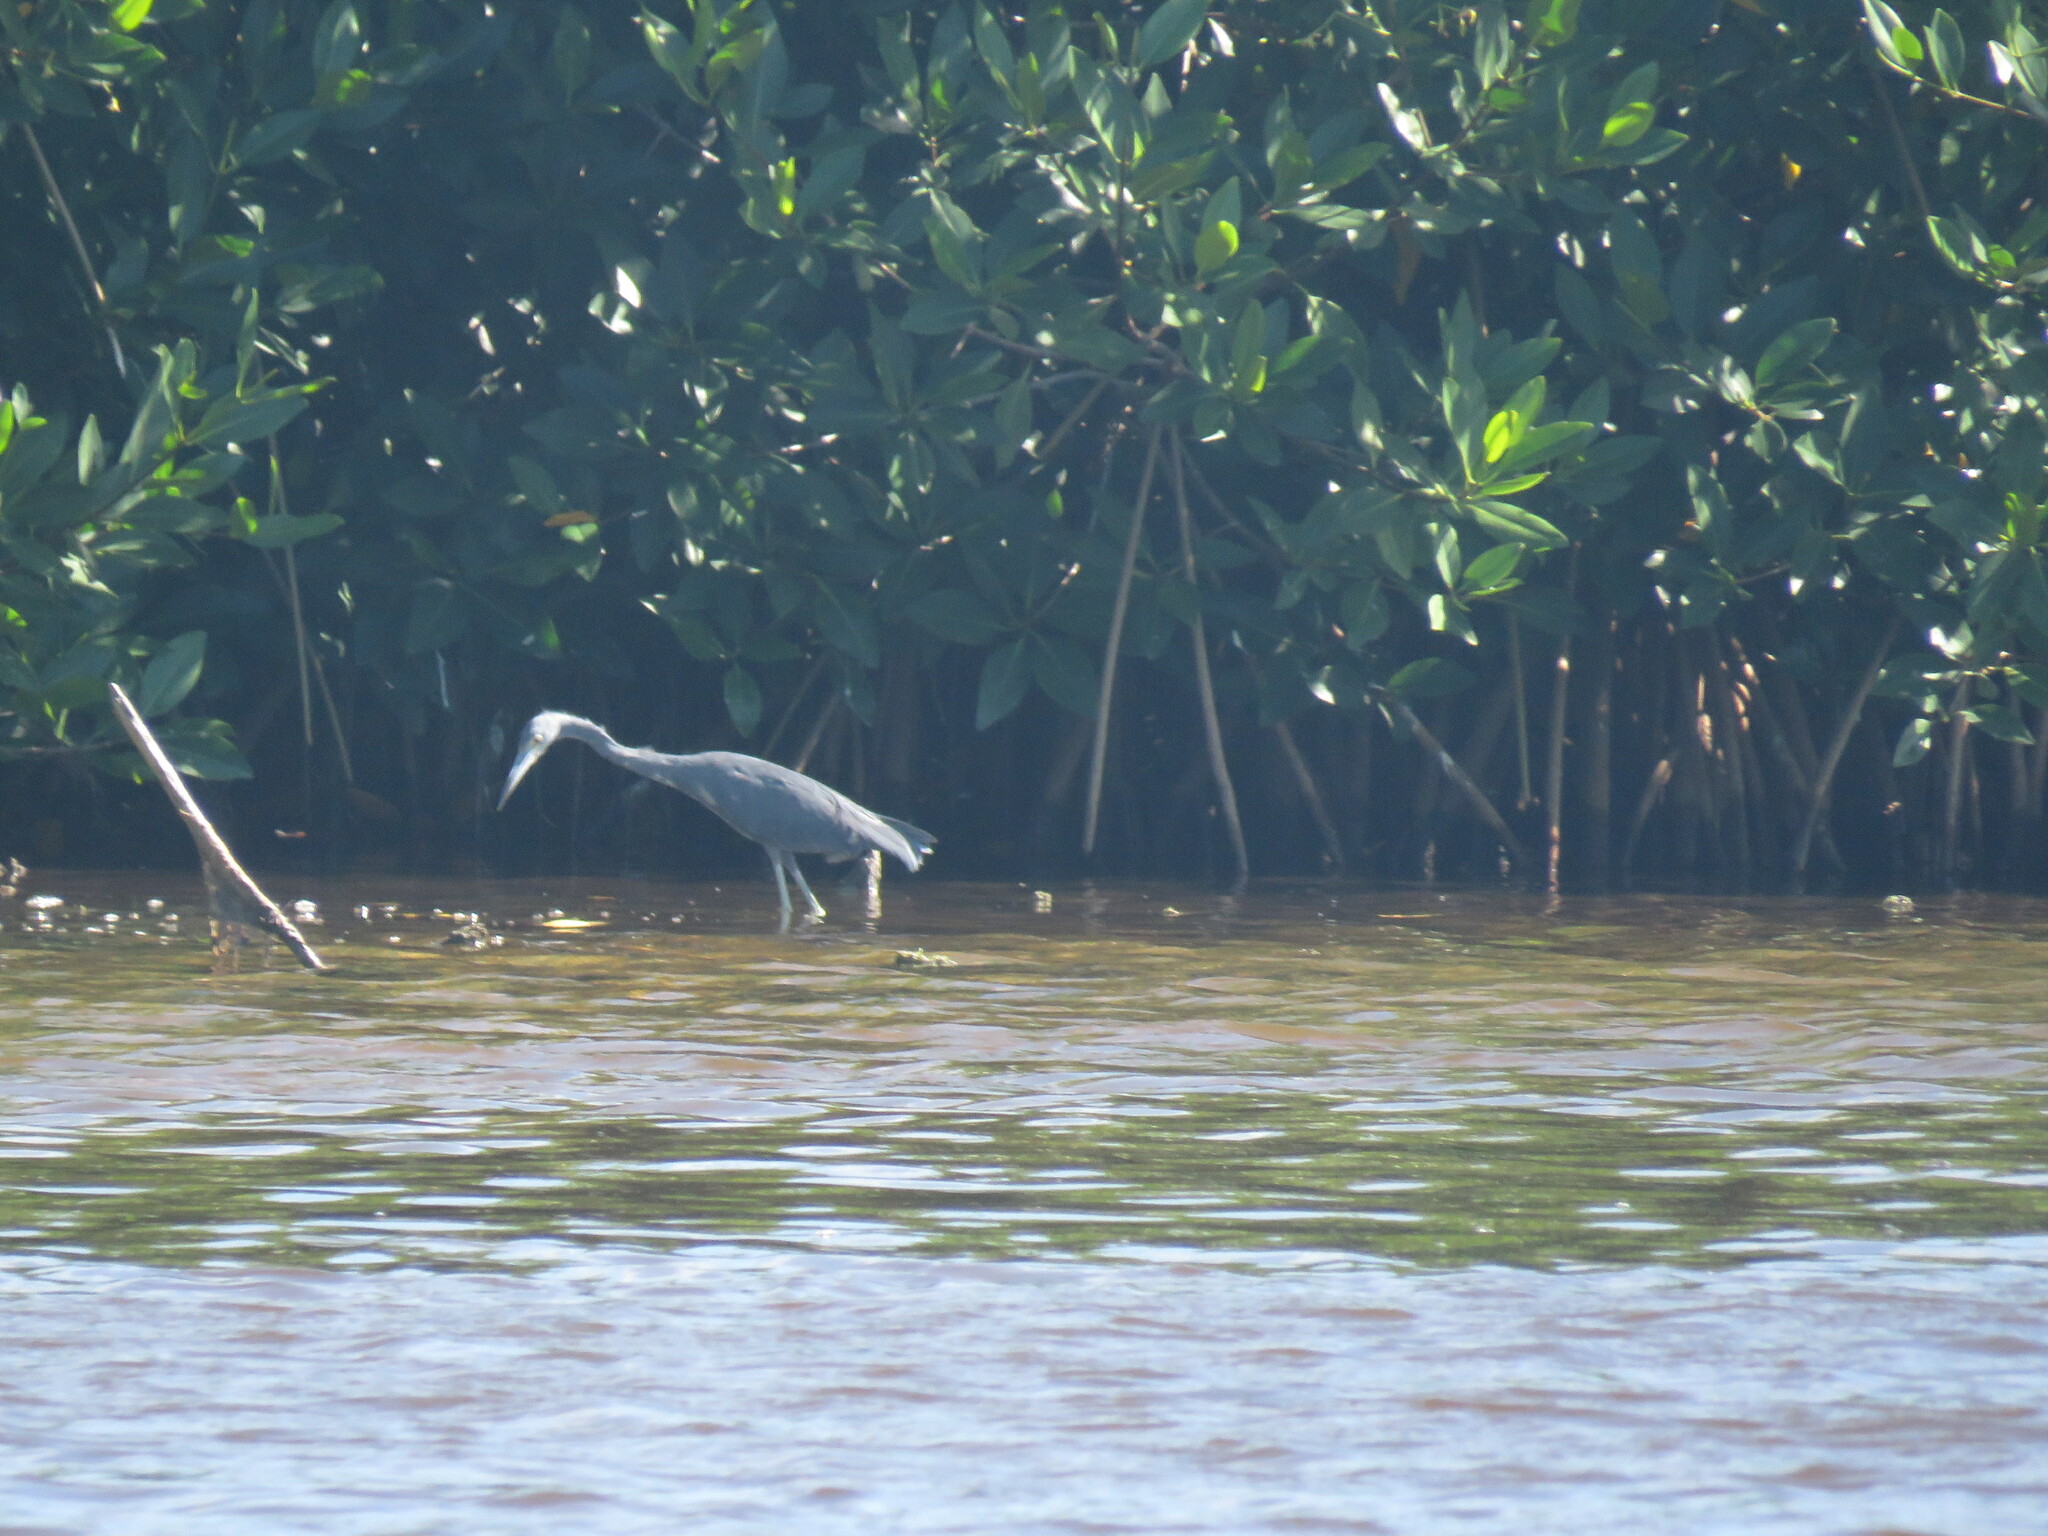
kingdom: Animalia
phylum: Chordata
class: Aves
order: Pelecaniformes
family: Ardeidae
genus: Egretta
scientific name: Egretta caerulea
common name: Little blue heron
